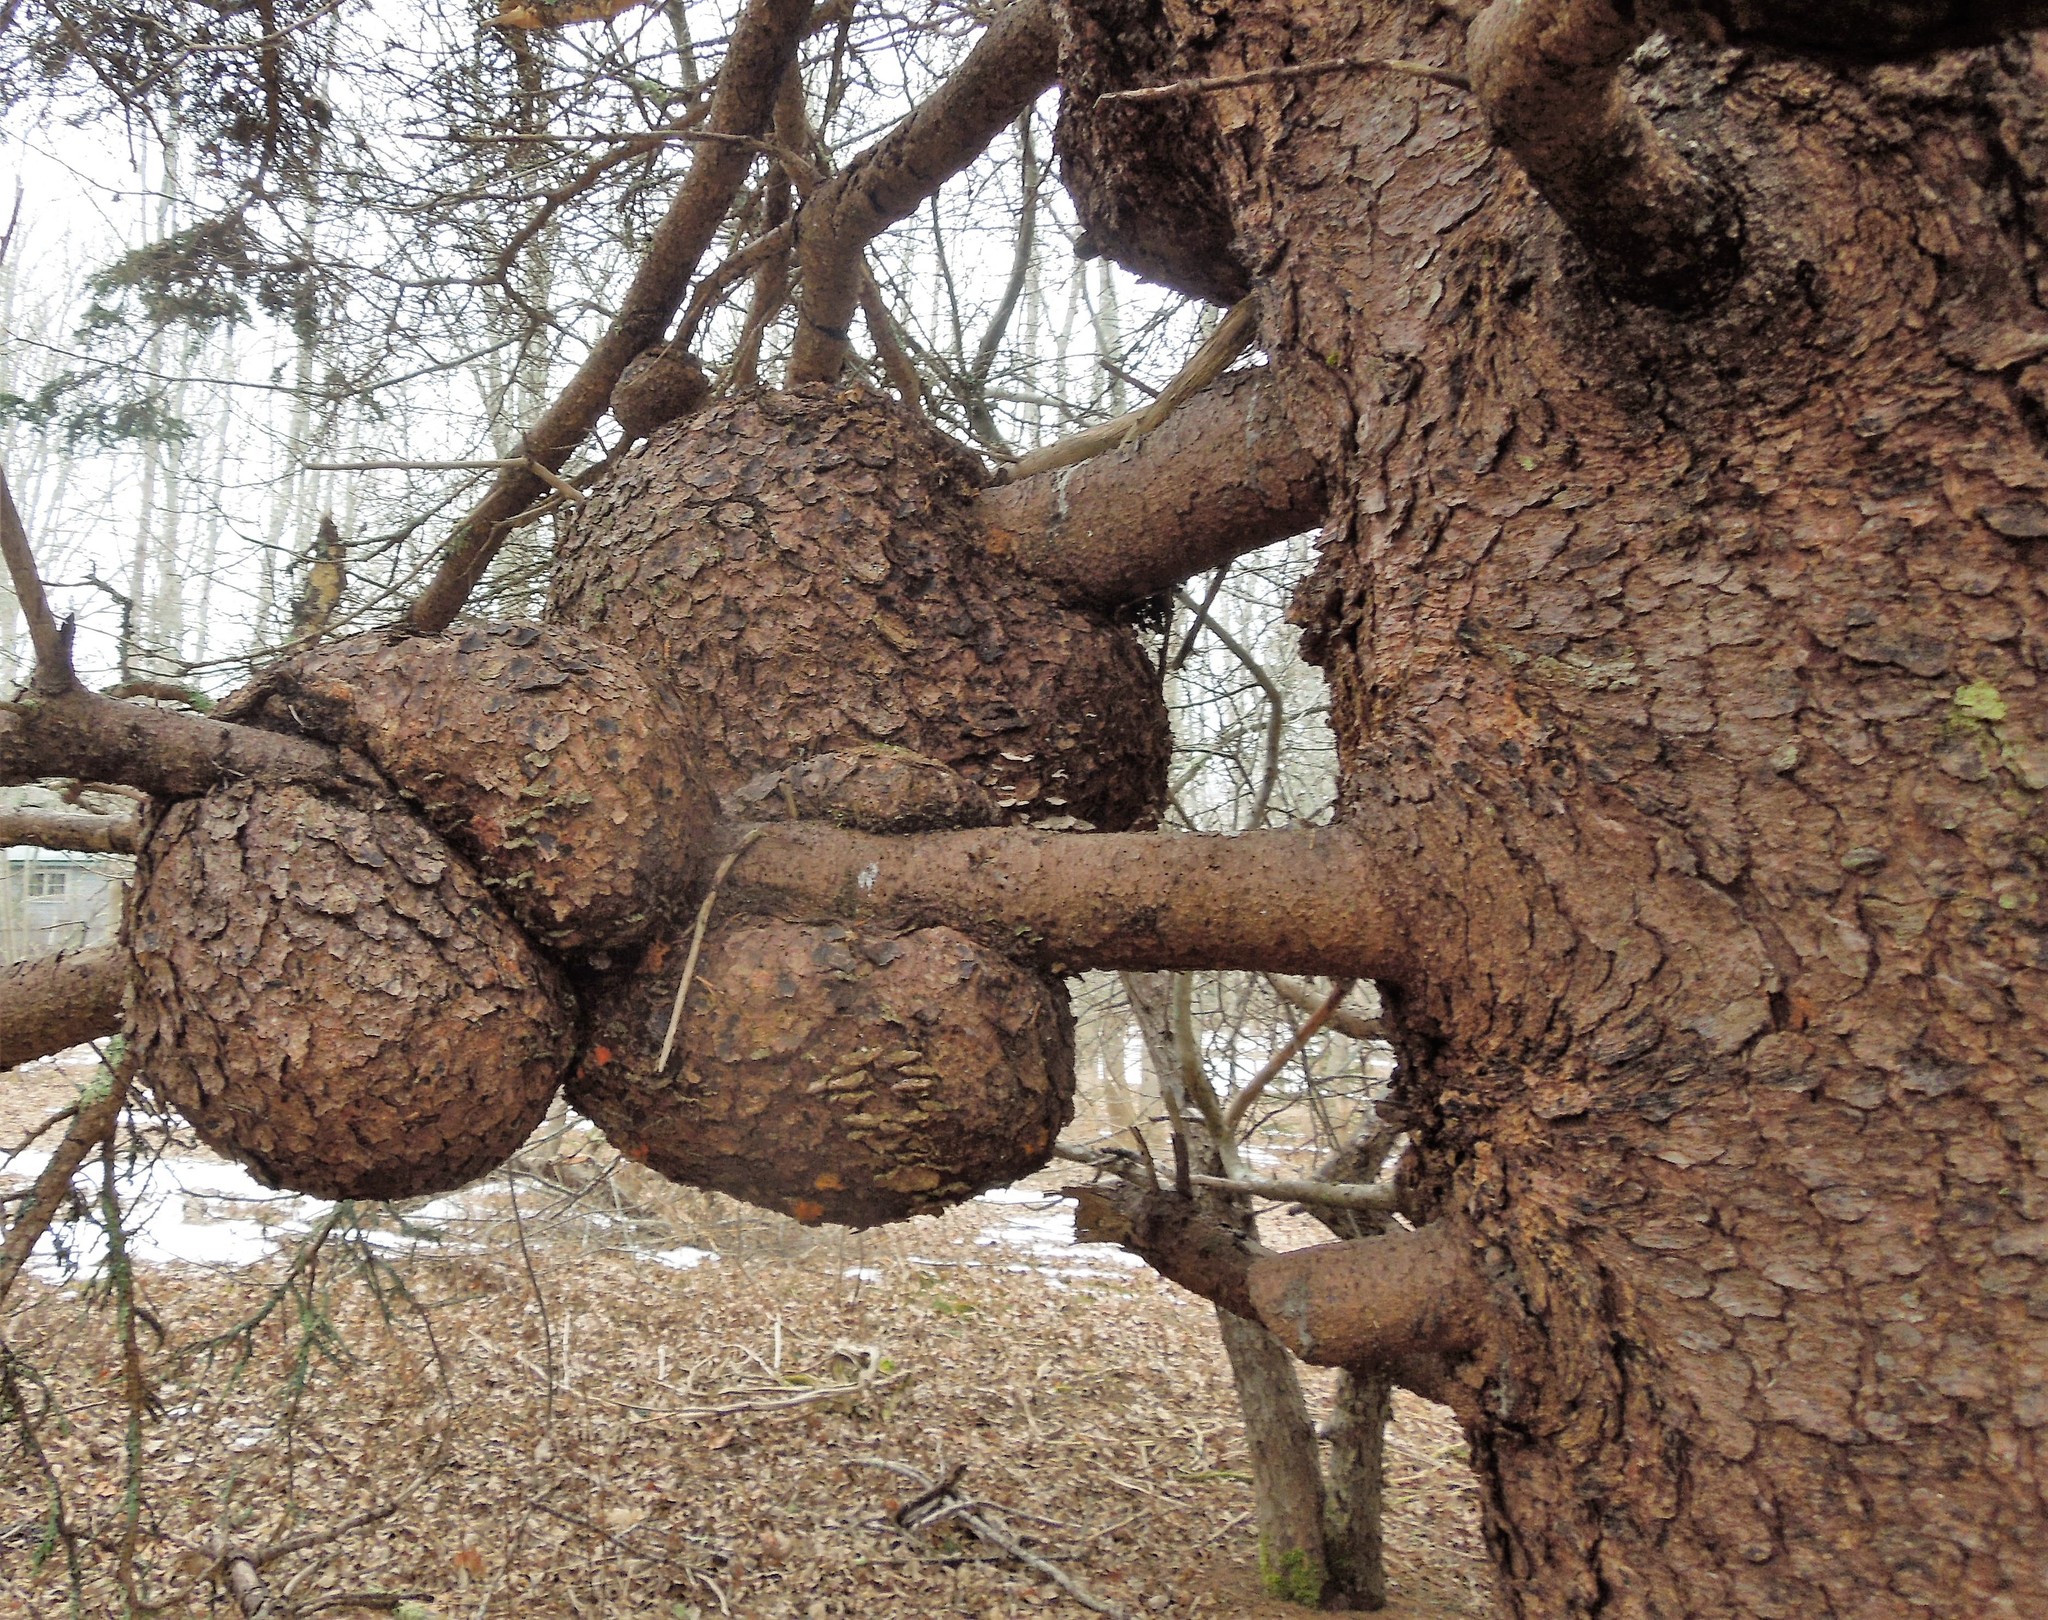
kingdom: Plantae
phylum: Tracheophyta
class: Pinopsida
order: Pinales
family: Pinaceae
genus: Picea
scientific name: Picea
